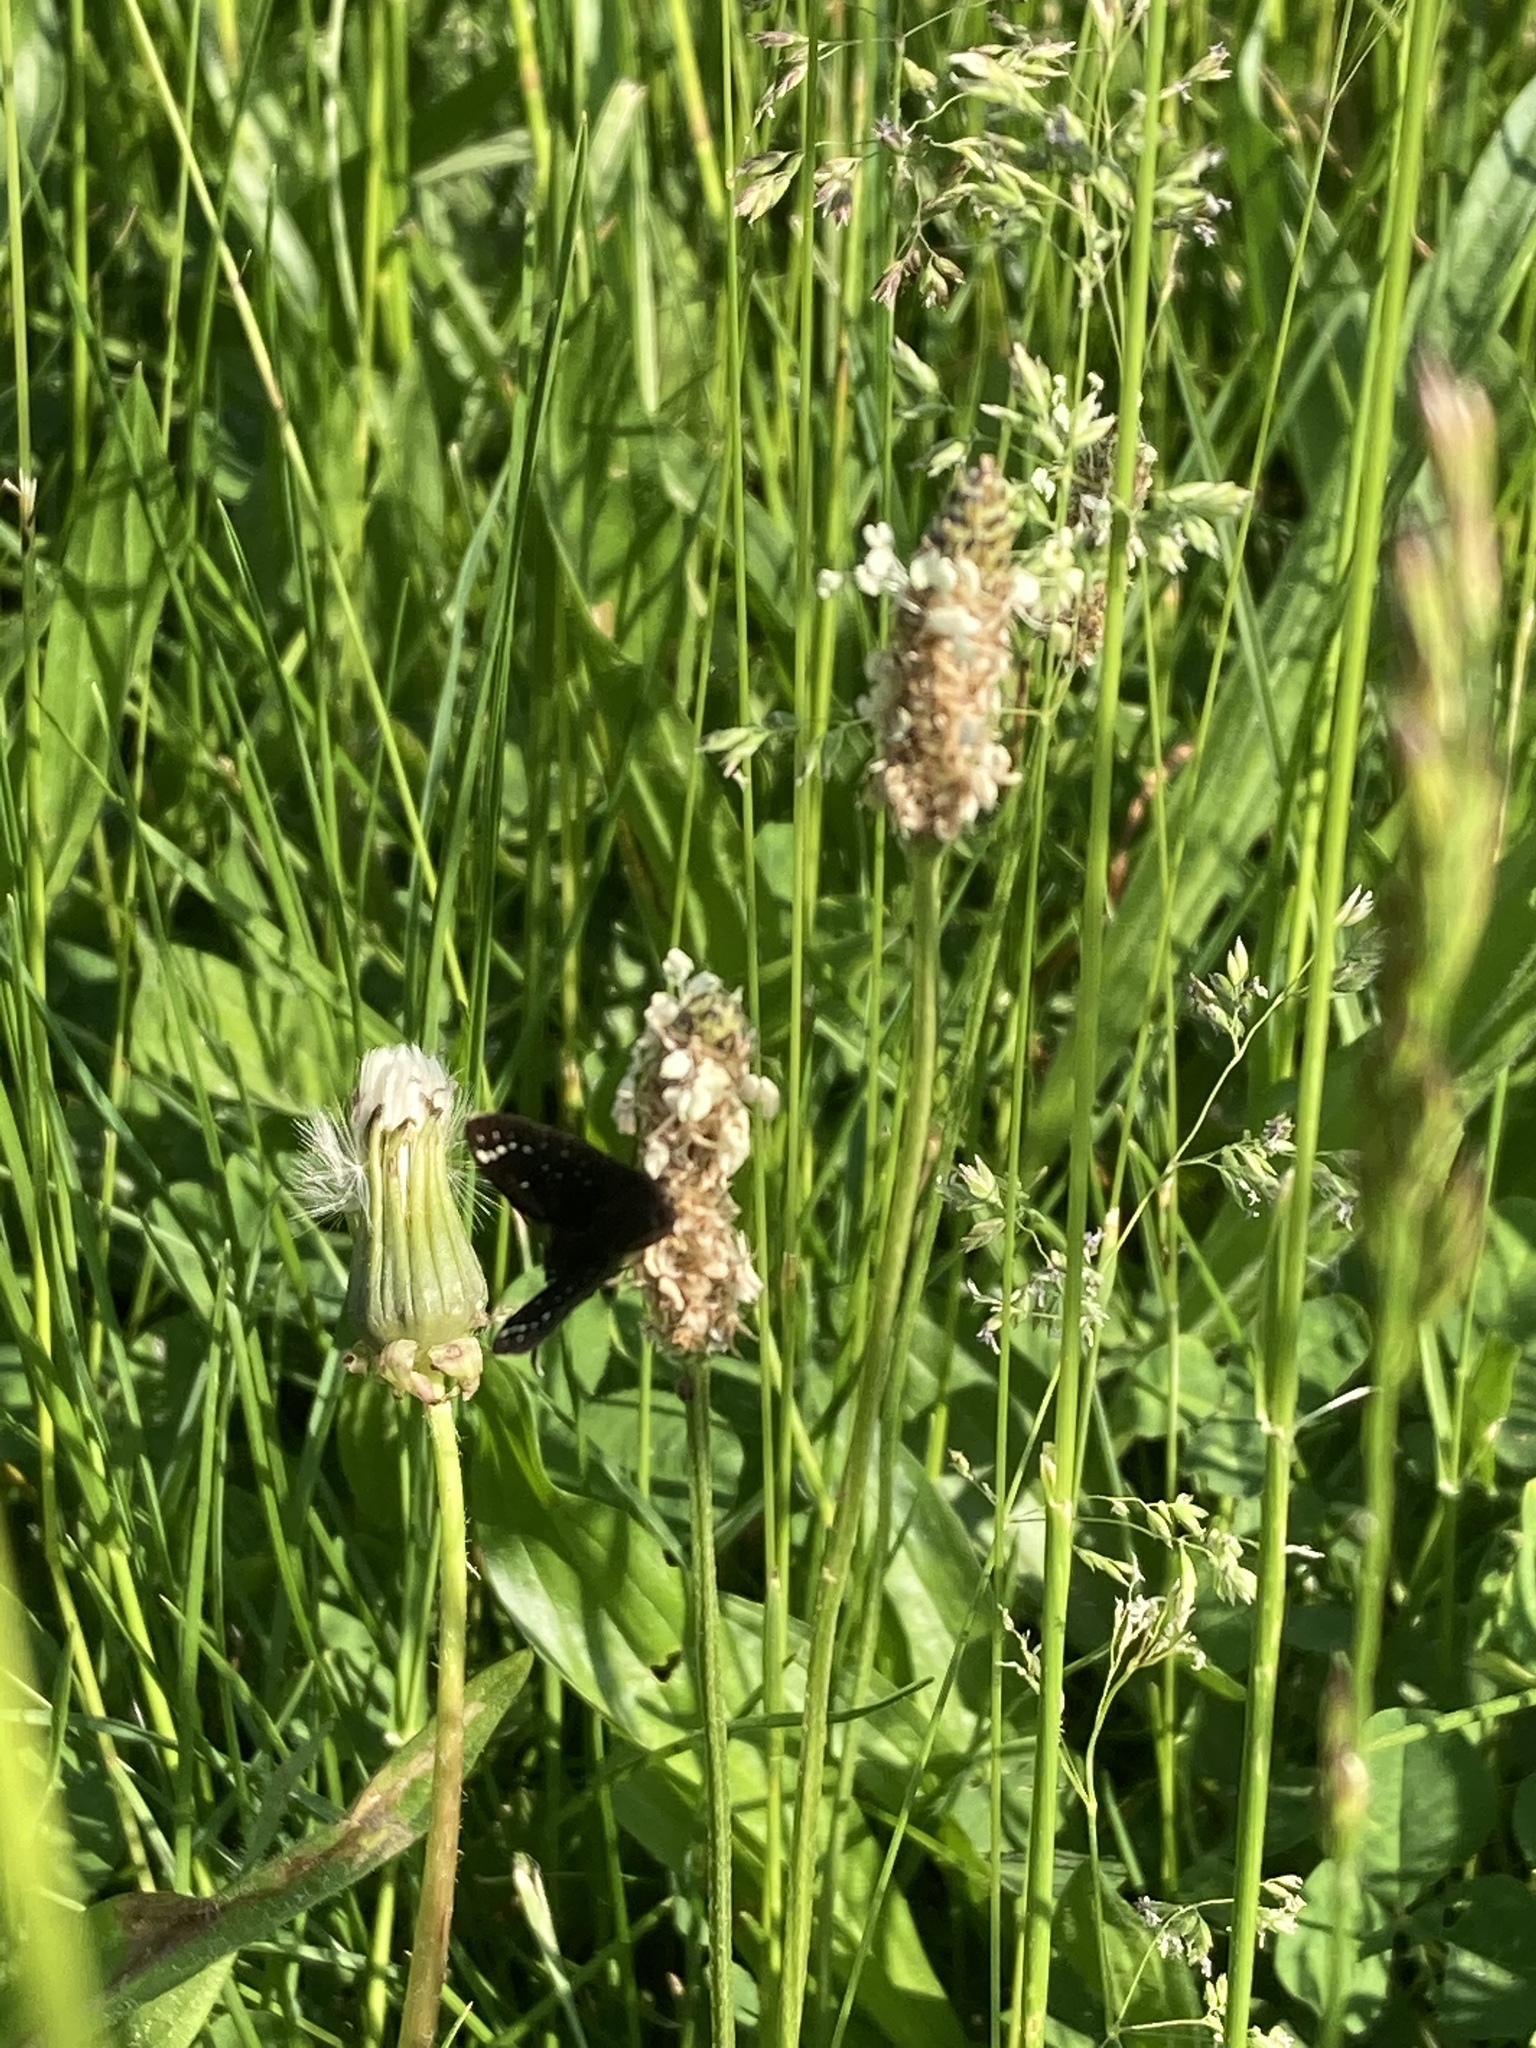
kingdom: Animalia
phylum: Arthropoda
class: Insecta
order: Lepidoptera
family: Hesperiidae
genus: Pholisora
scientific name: Pholisora catullus
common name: Common sootywing
